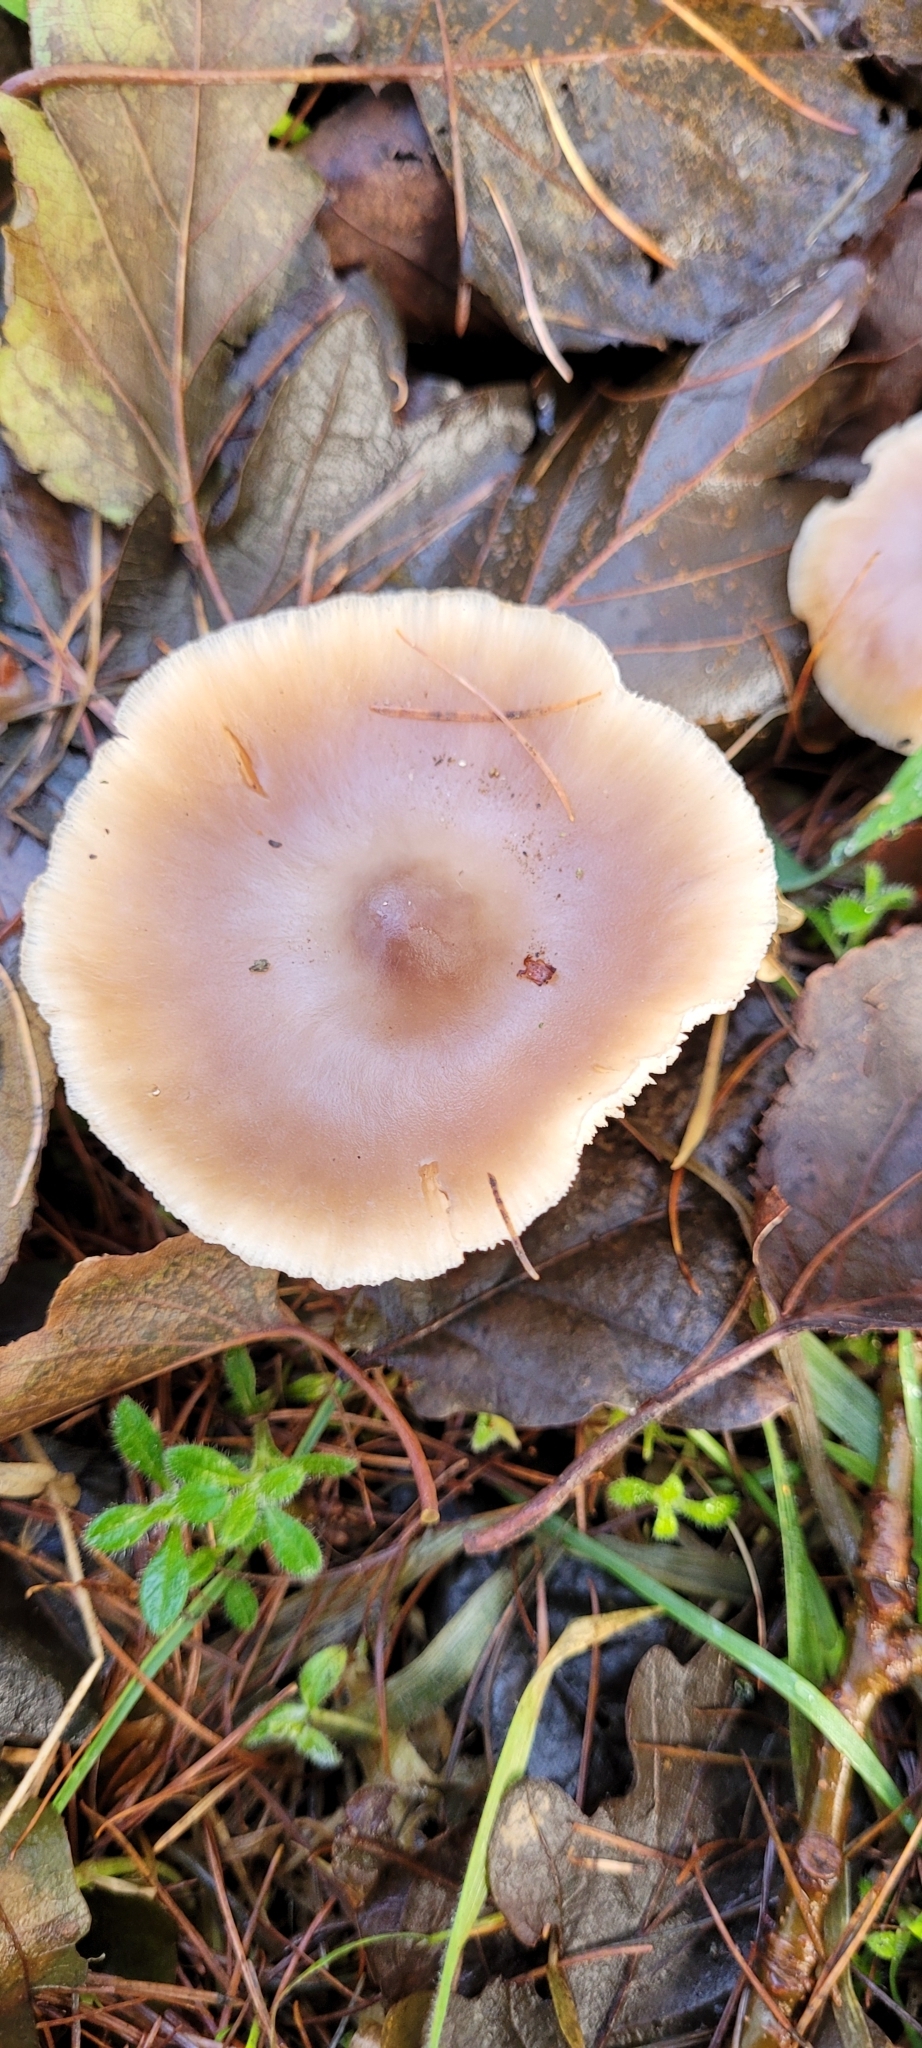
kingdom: Fungi
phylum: Basidiomycota
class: Agaricomycetes
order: Agaricales
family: Omphalotaceae
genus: Rhodocollybia
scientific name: Rhodocollybia butyracea
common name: Butter cap
